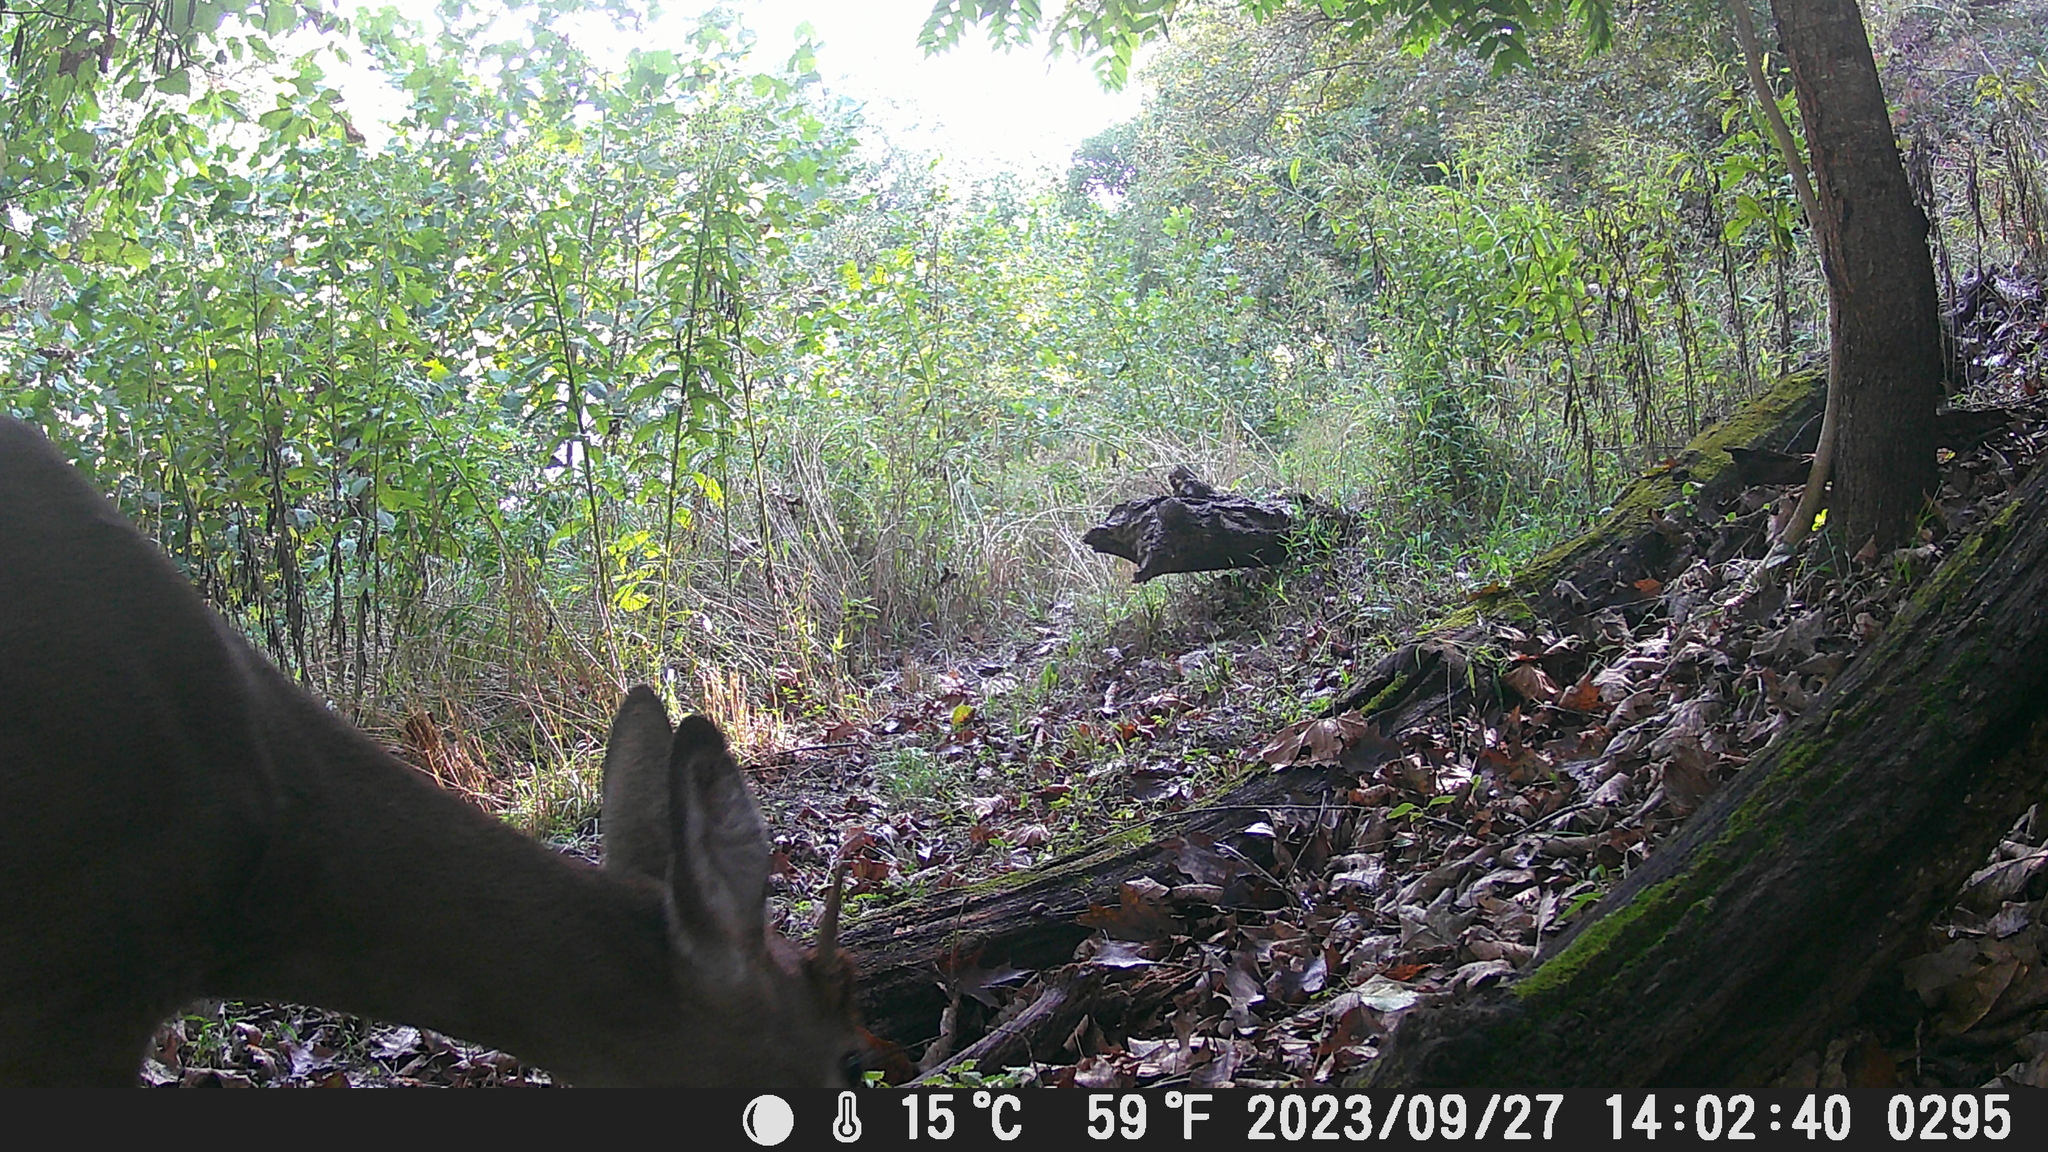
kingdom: Animalia
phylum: Chordata
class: Mammalia
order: Artiodactyla
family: Cervidae
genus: Odocoileus
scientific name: Odocoileus virginianus
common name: White-tailed deer
